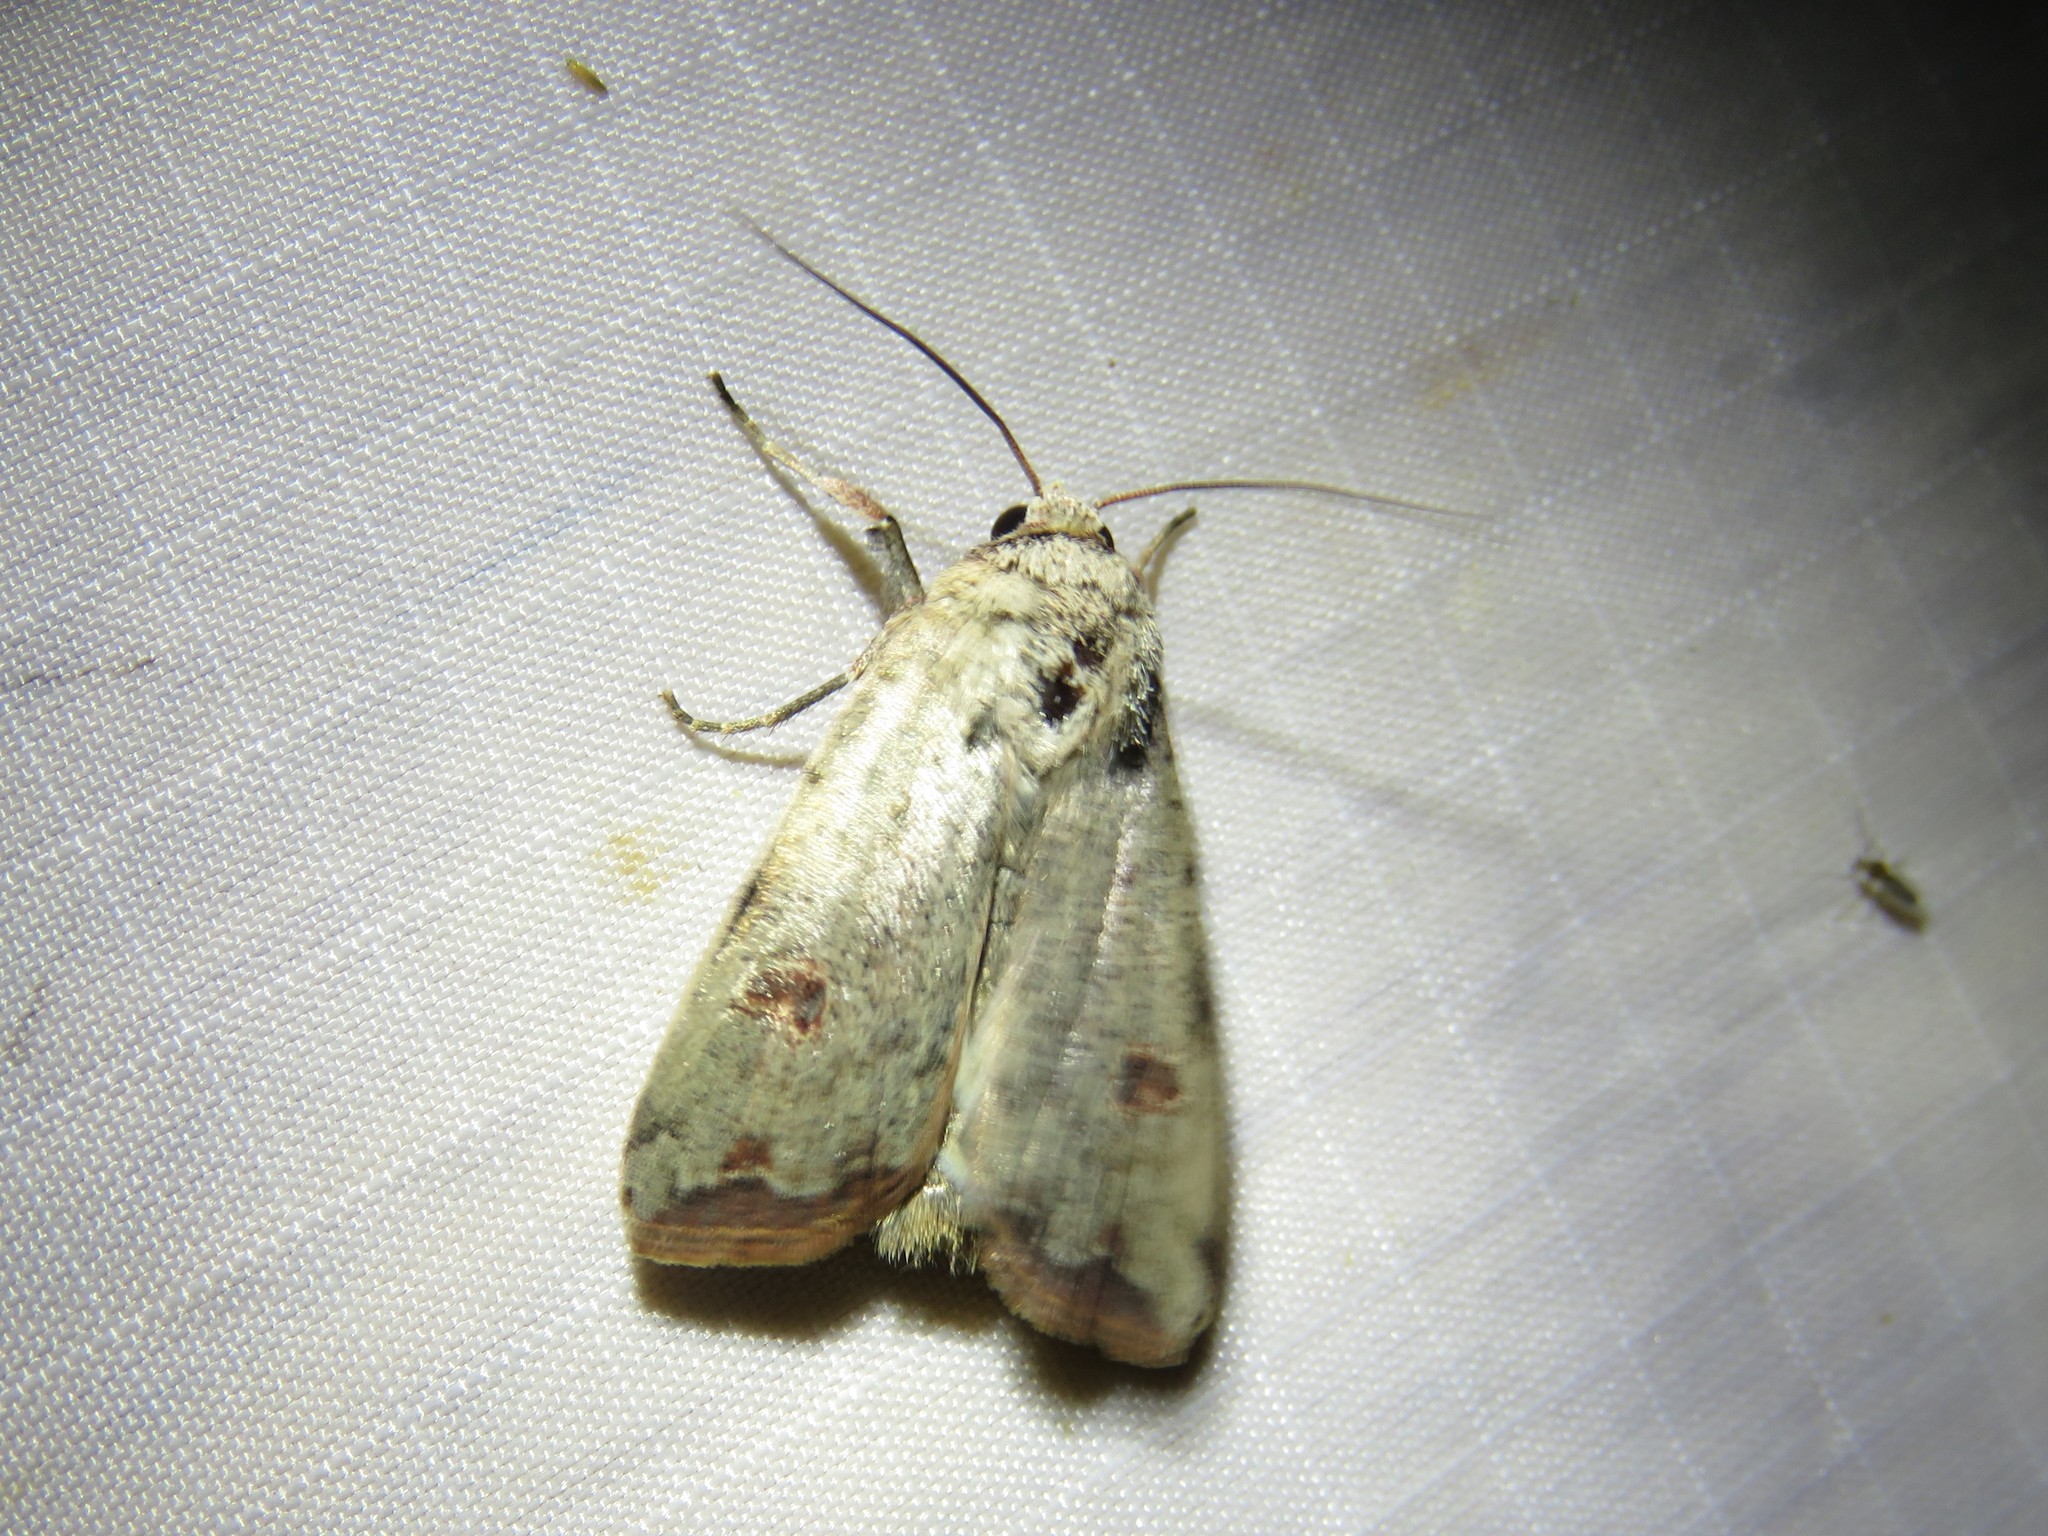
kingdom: Animalia
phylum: Arthropoda
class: Insecta
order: Lepidoptera
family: Noctuidae
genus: Anicla
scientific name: Anicla infecta
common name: Green cutworm
